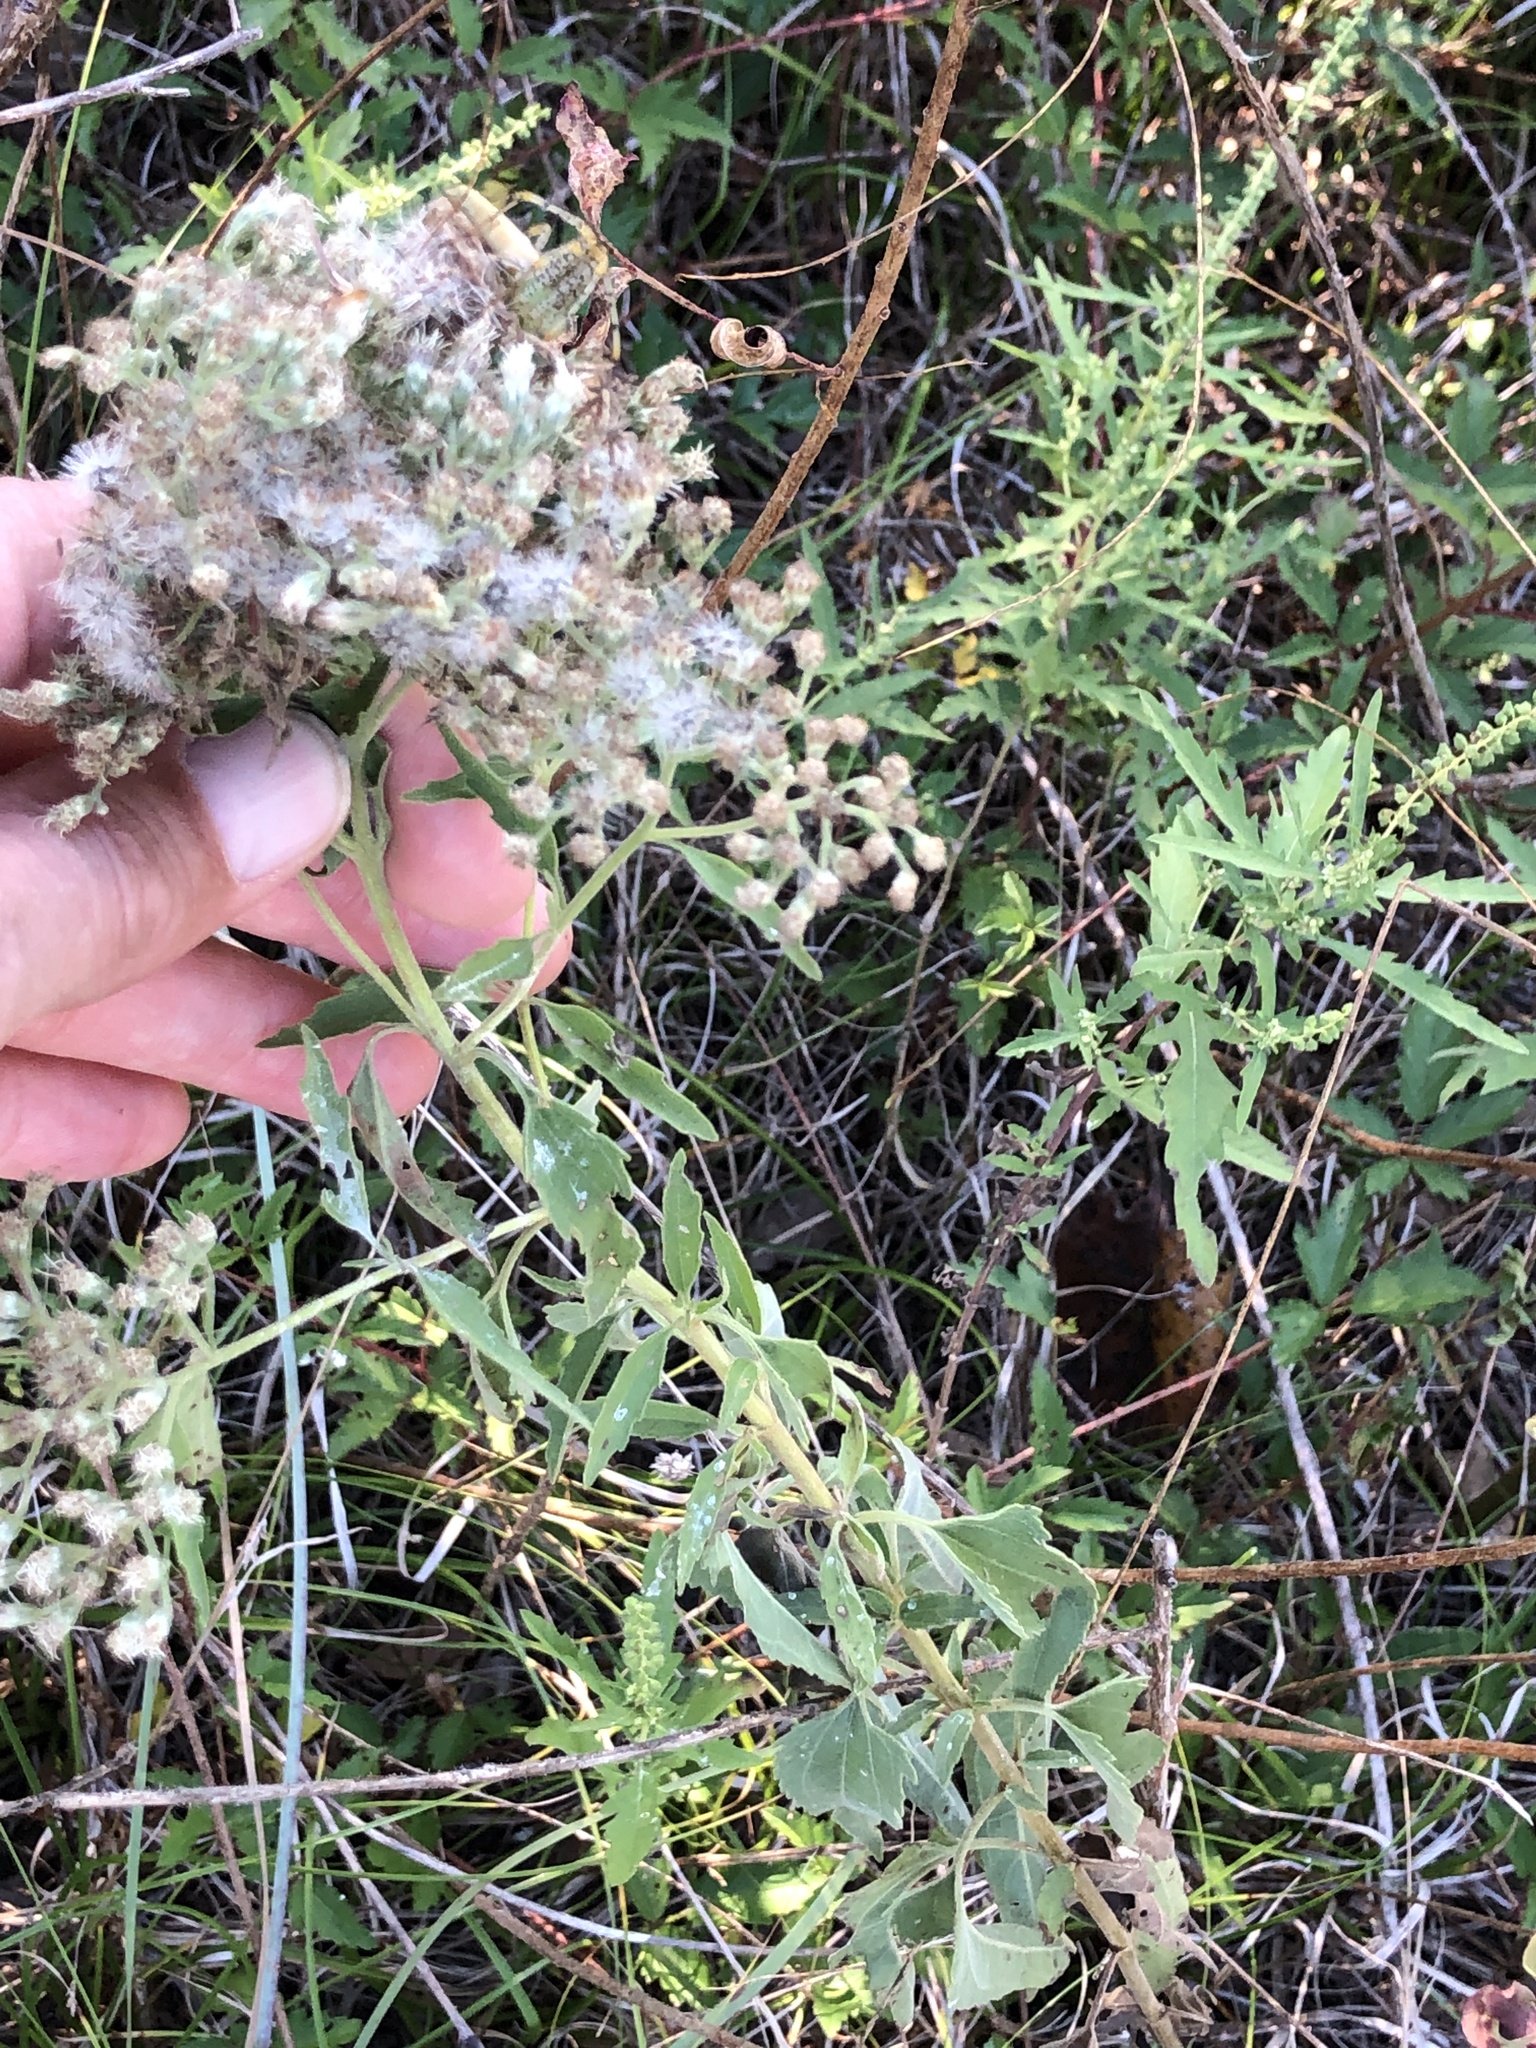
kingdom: Plantae
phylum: Tracheophyta
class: Magnoliopsida
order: Asterales
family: Asteraceae
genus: Eupatorium
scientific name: Eupatorium serotinum
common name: Late boneset
